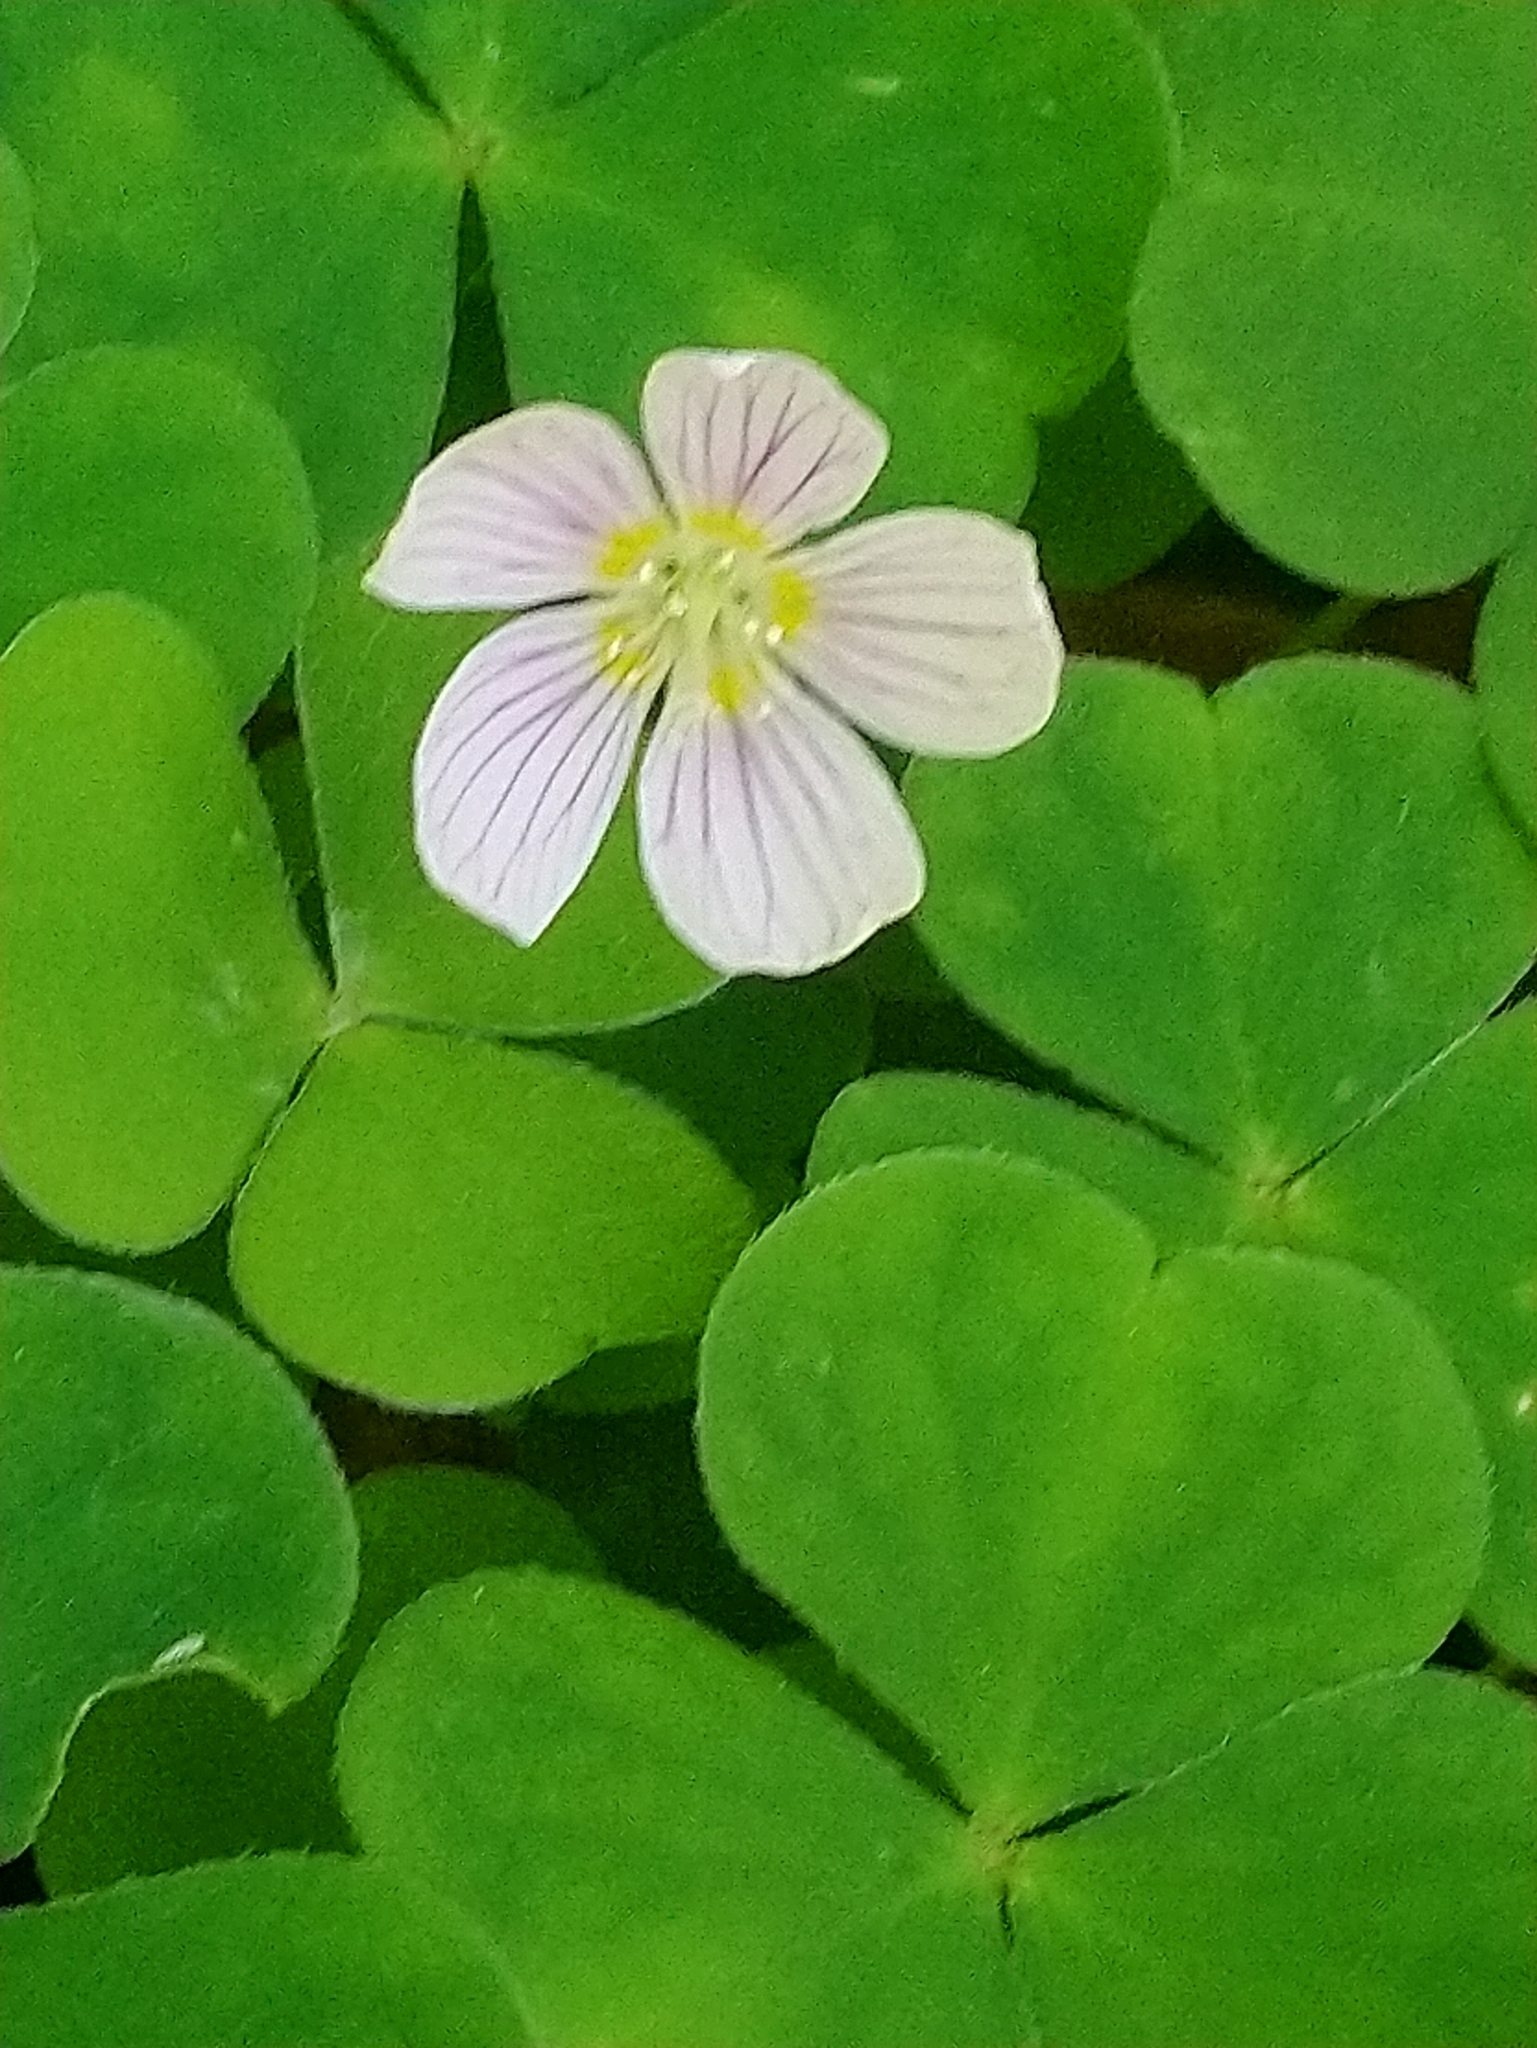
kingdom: Plantae
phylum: Tracheophyta
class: Magnoliopsida
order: Oxalidales
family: Oxalidaceae
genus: Oxalis
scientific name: Oxalis acetosella
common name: Wood-sorrel
